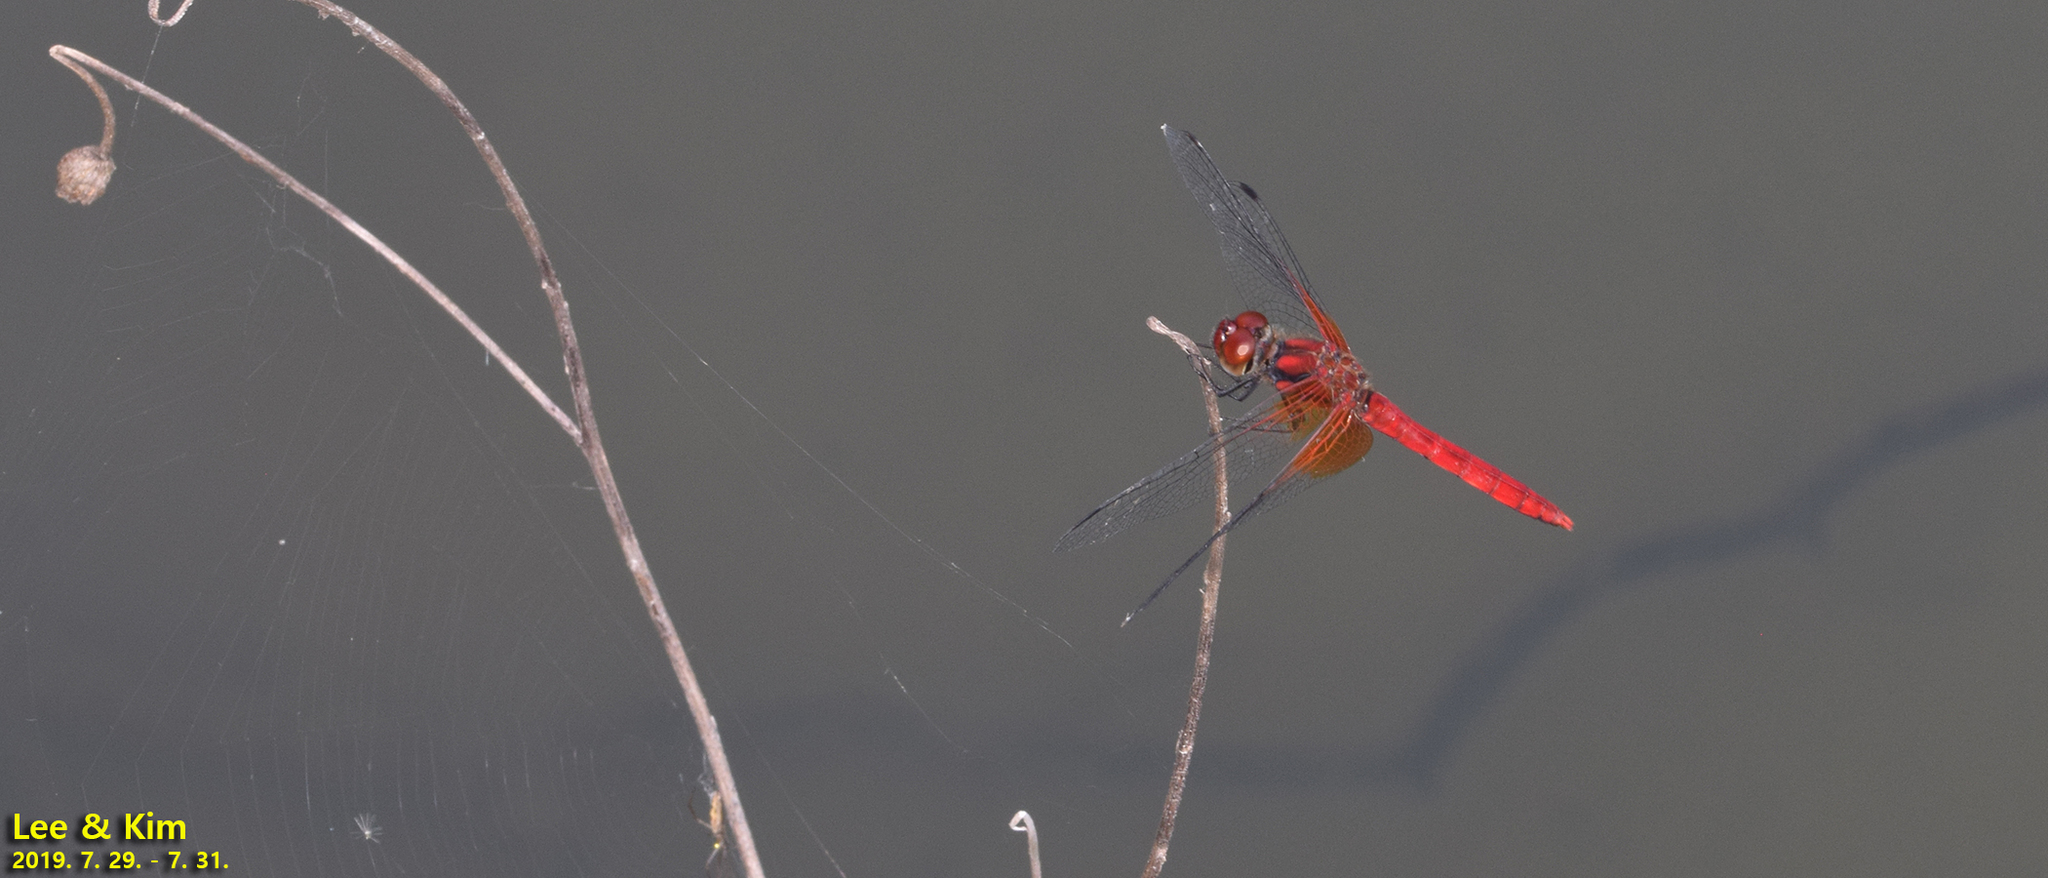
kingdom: Animalia
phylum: Arthropoda
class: Insecta
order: Odonata
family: Libellulidae
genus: Sympetrum
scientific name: Sympetrum speciosum
